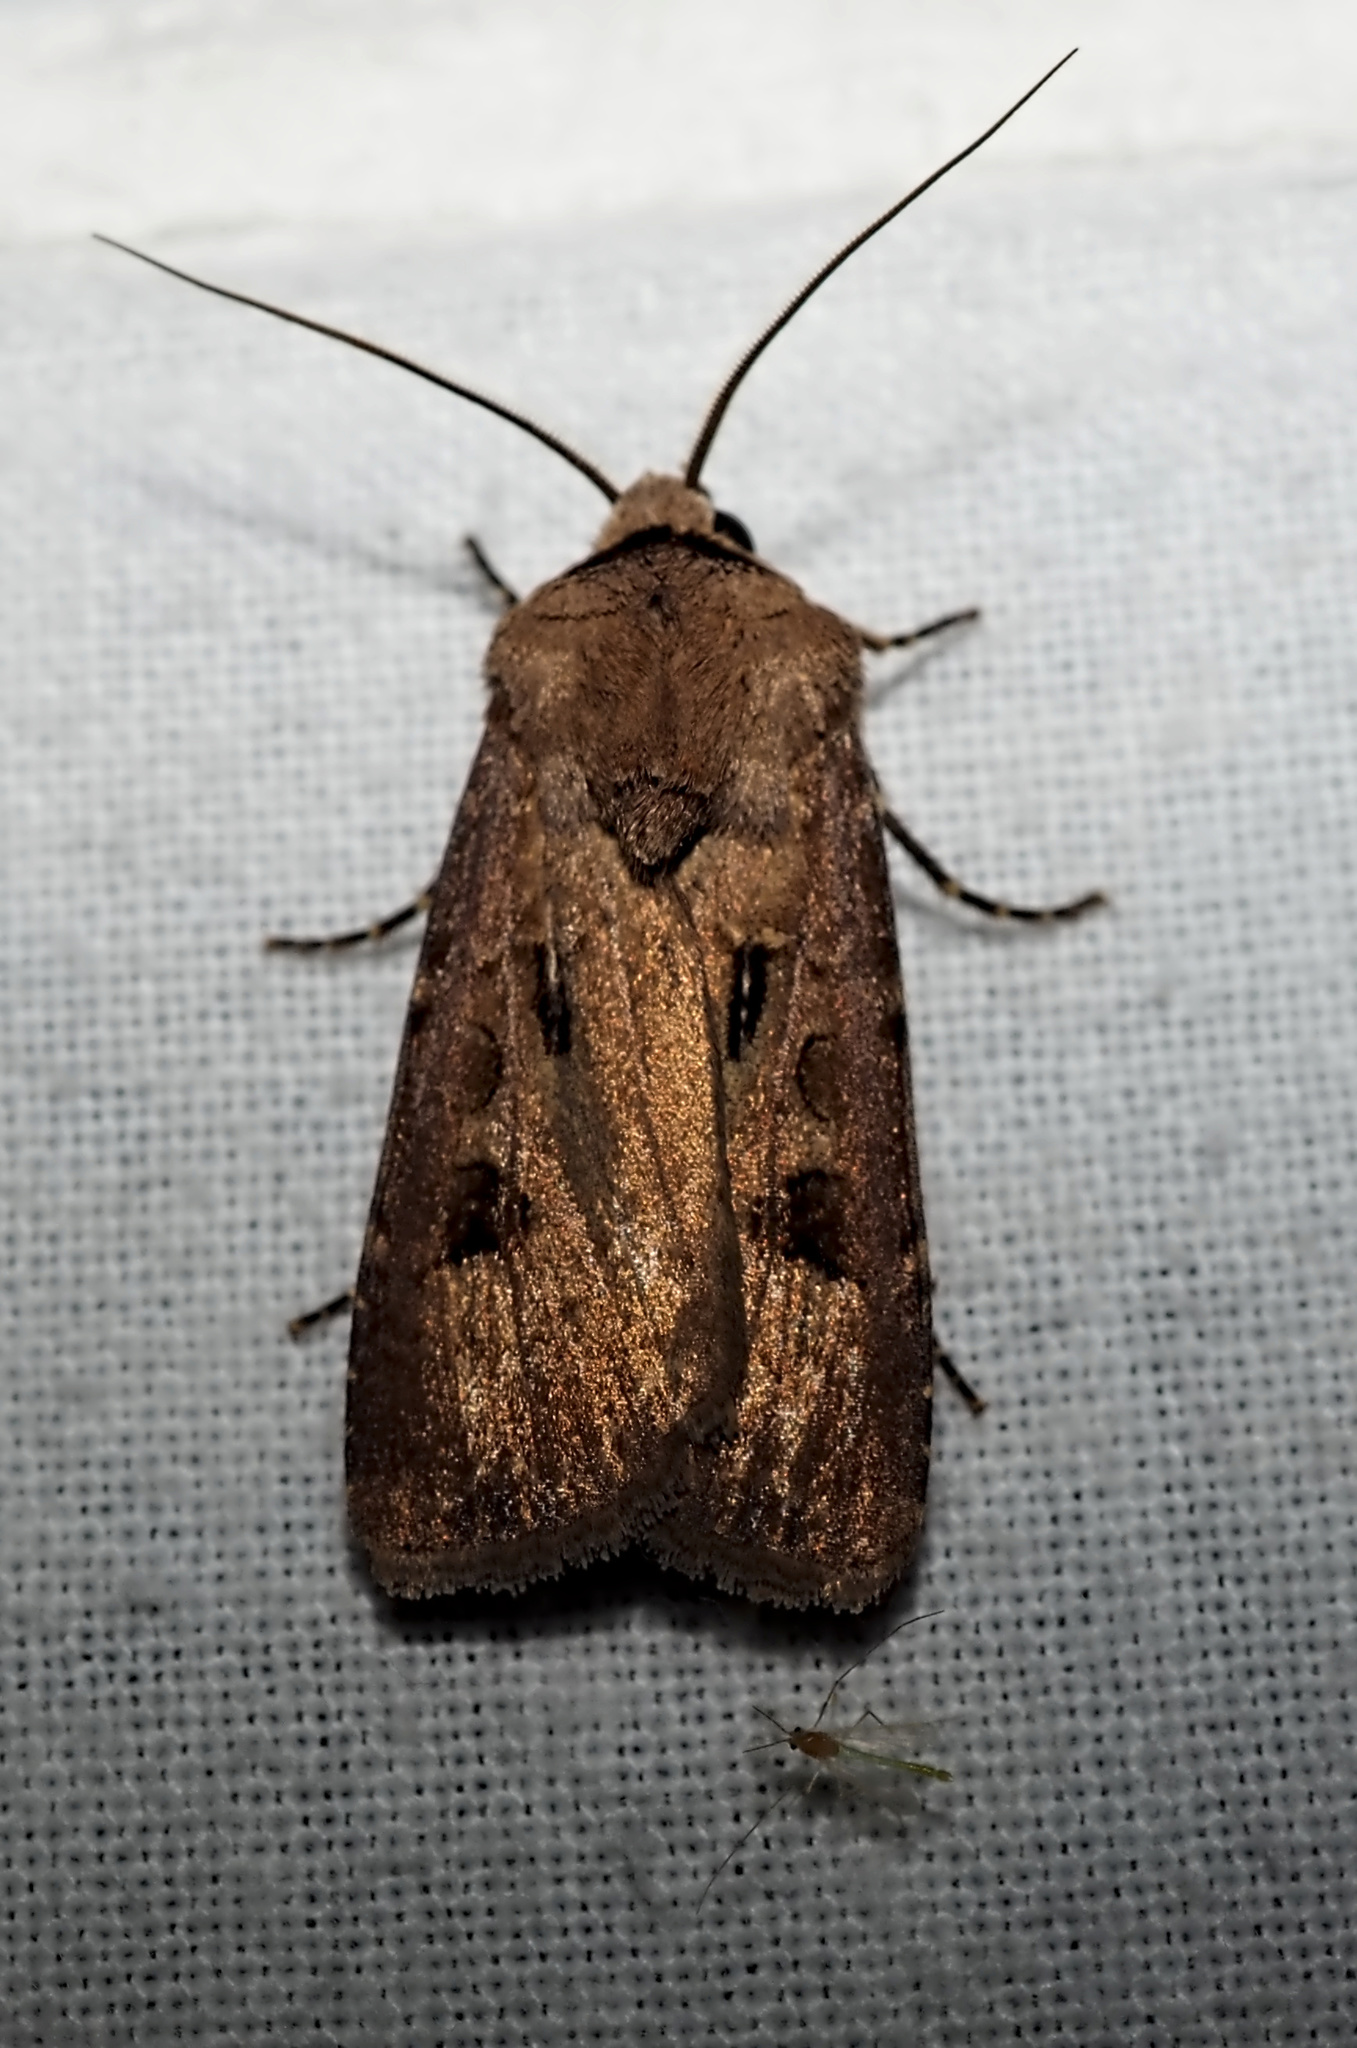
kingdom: Animalia
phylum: Arthropoda
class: Insecta
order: Lepidoptera
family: Noctuidae
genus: Agrotis
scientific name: Agrotis exclamationis
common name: Heart and dart
